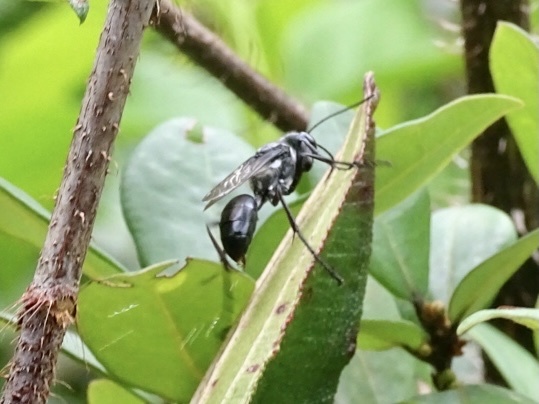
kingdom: Animalia
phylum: Arthropoda
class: Insecta
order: Hymenoptera
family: Sphecidae
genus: Sphex
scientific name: Sphex argentatus
